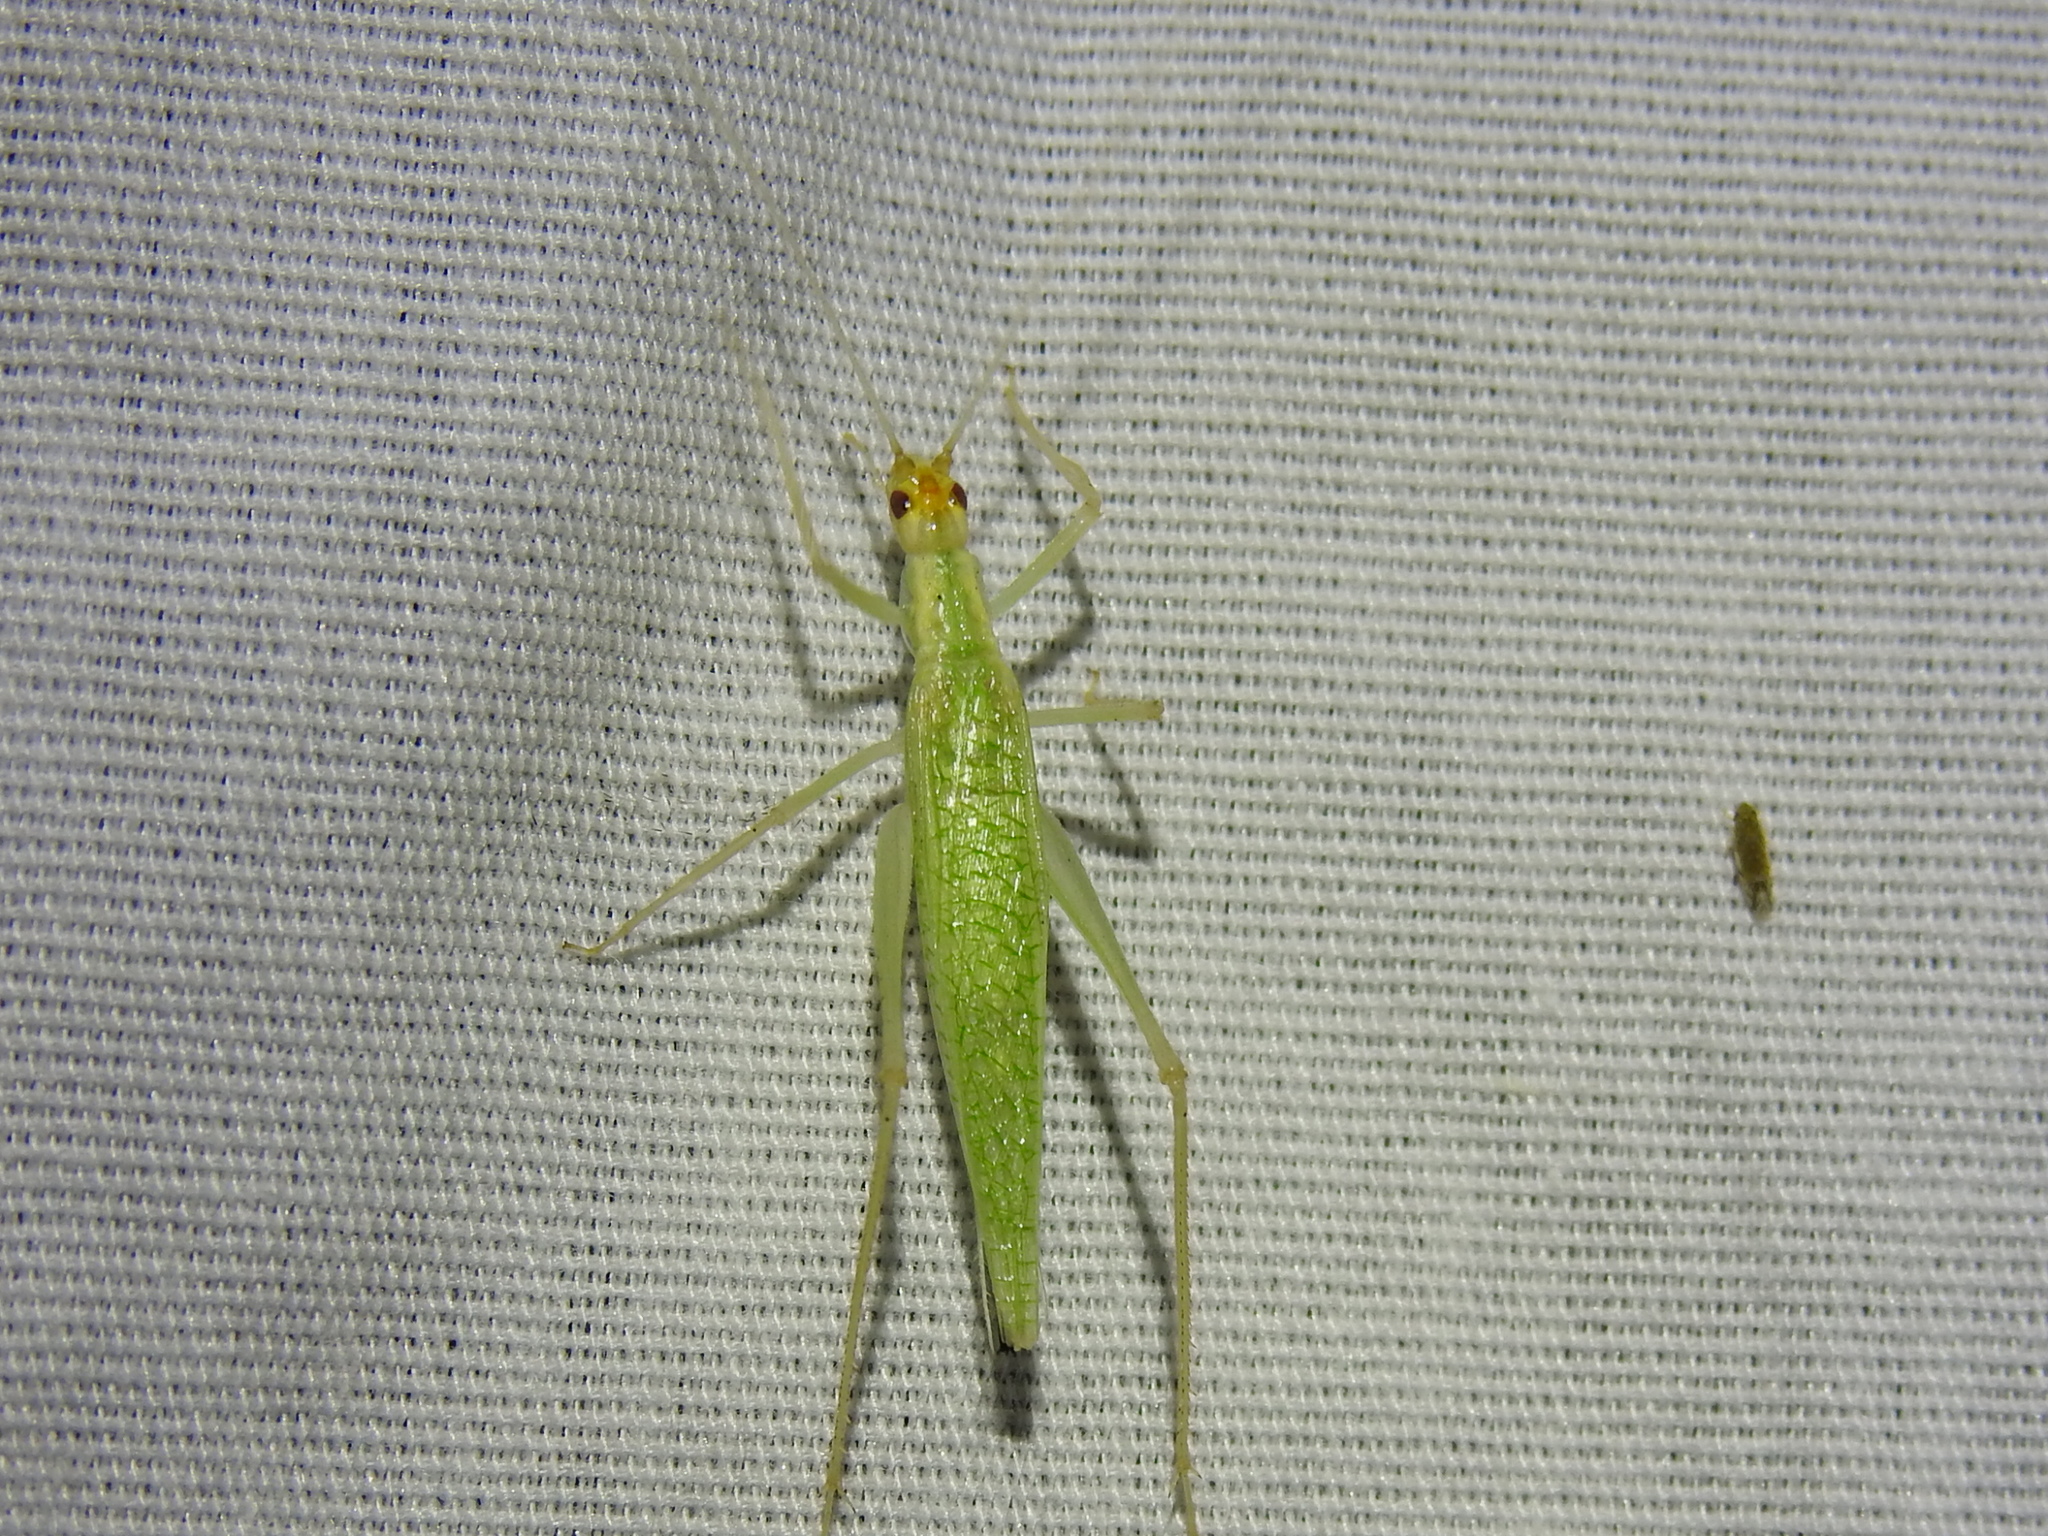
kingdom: Animalia
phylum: Arthropoda
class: Insecta
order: Orthoptera
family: Gryllidae
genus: Oecanthus
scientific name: Oecanthus niveus
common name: Narrow-winged tree cricket
